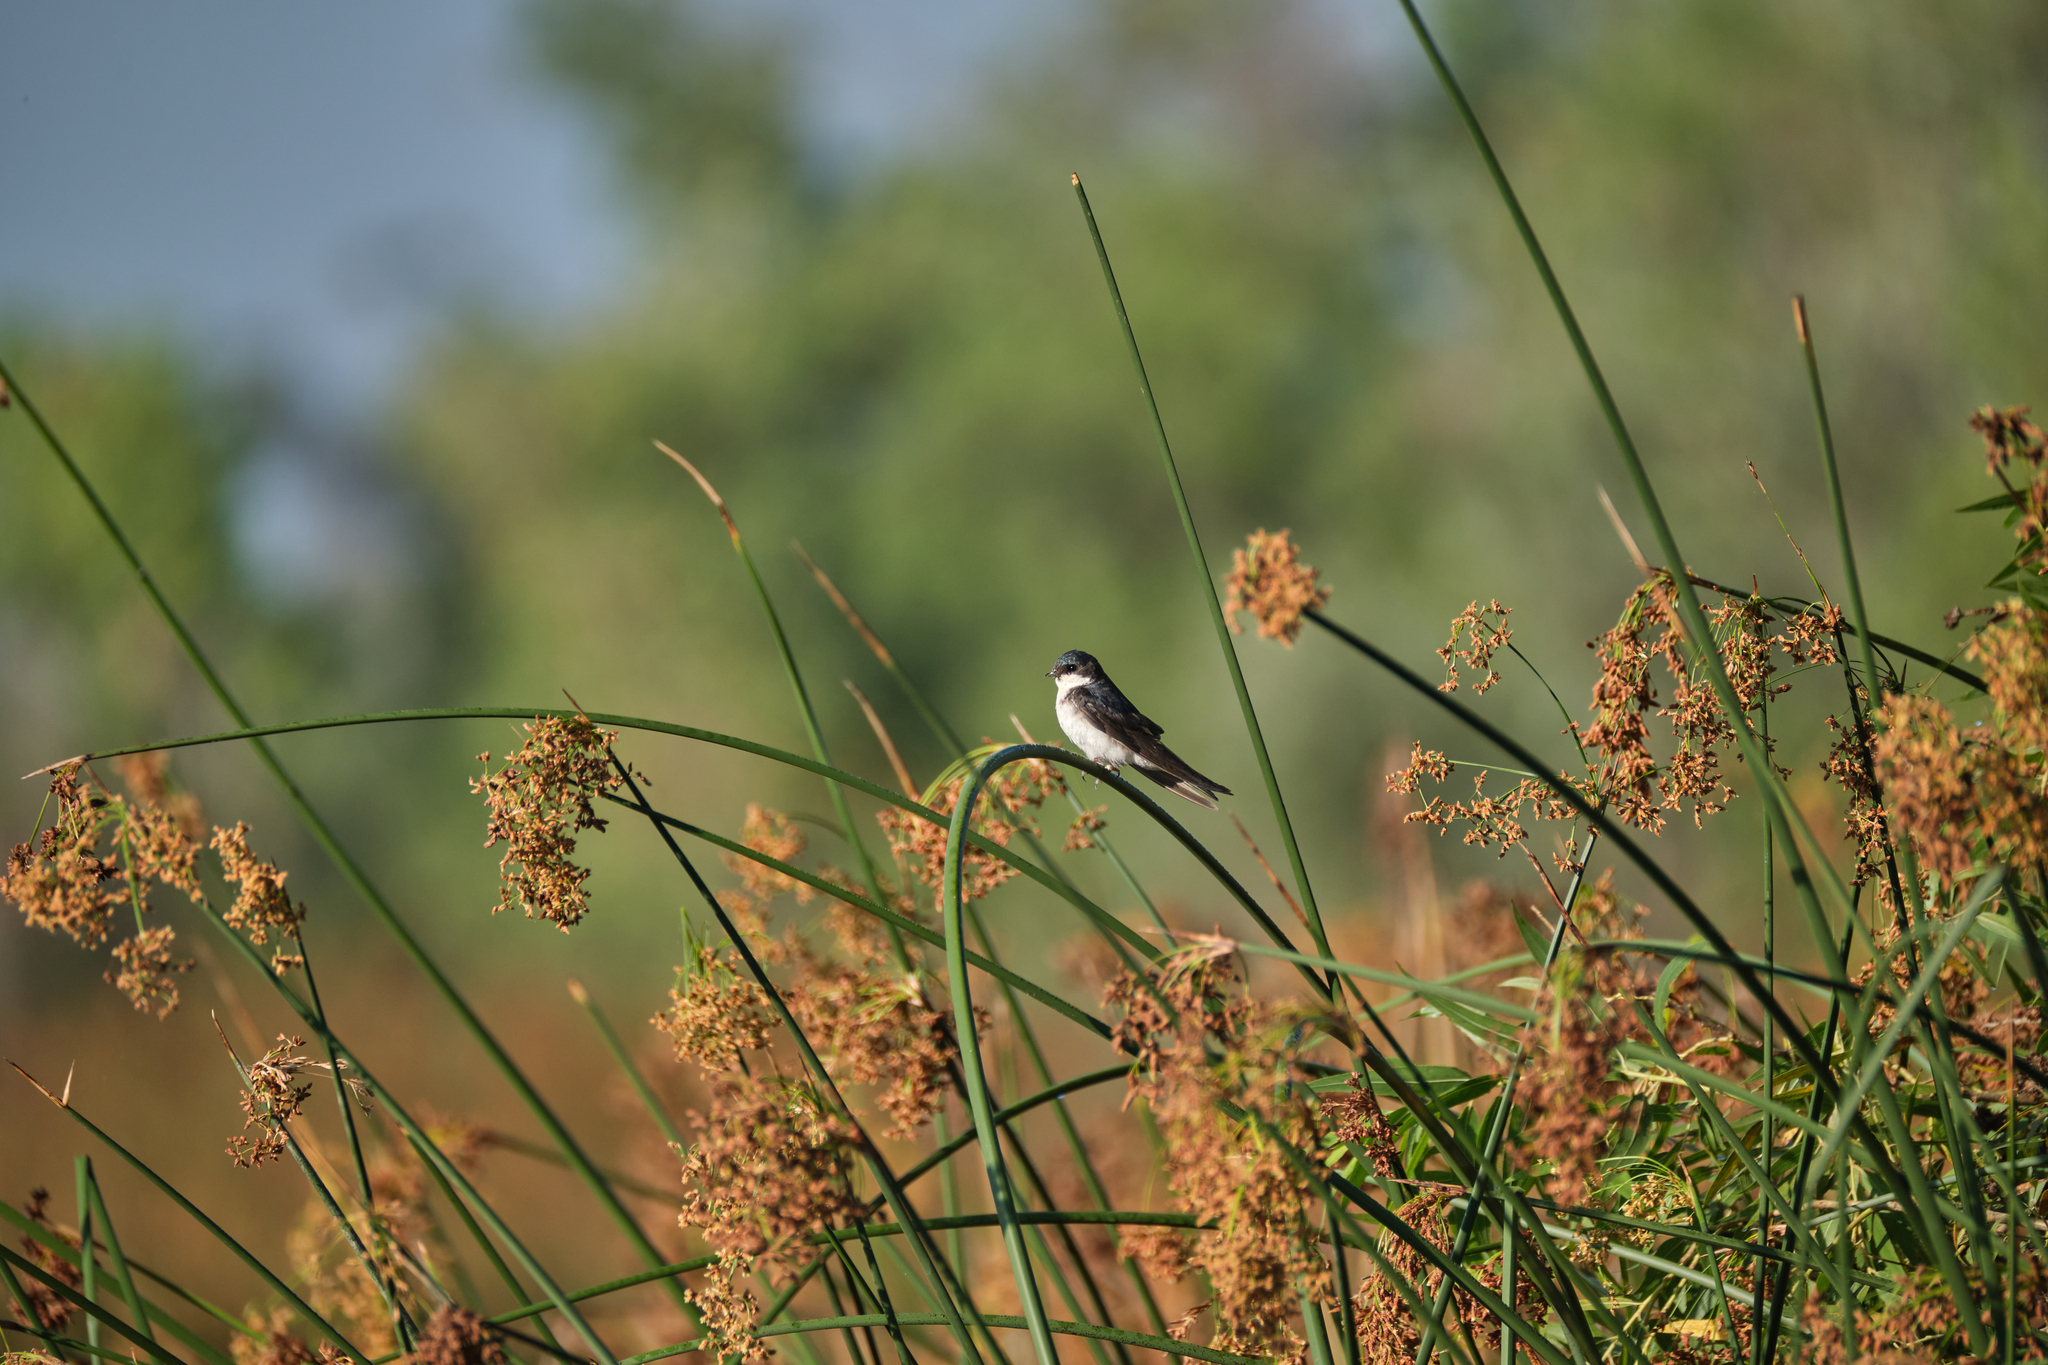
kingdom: Animalia
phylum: Chordata
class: Aves
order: Passeriformes
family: Hirundinidae
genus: Tachycineta
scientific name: Tachycineta bicolor
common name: Tree swallow
